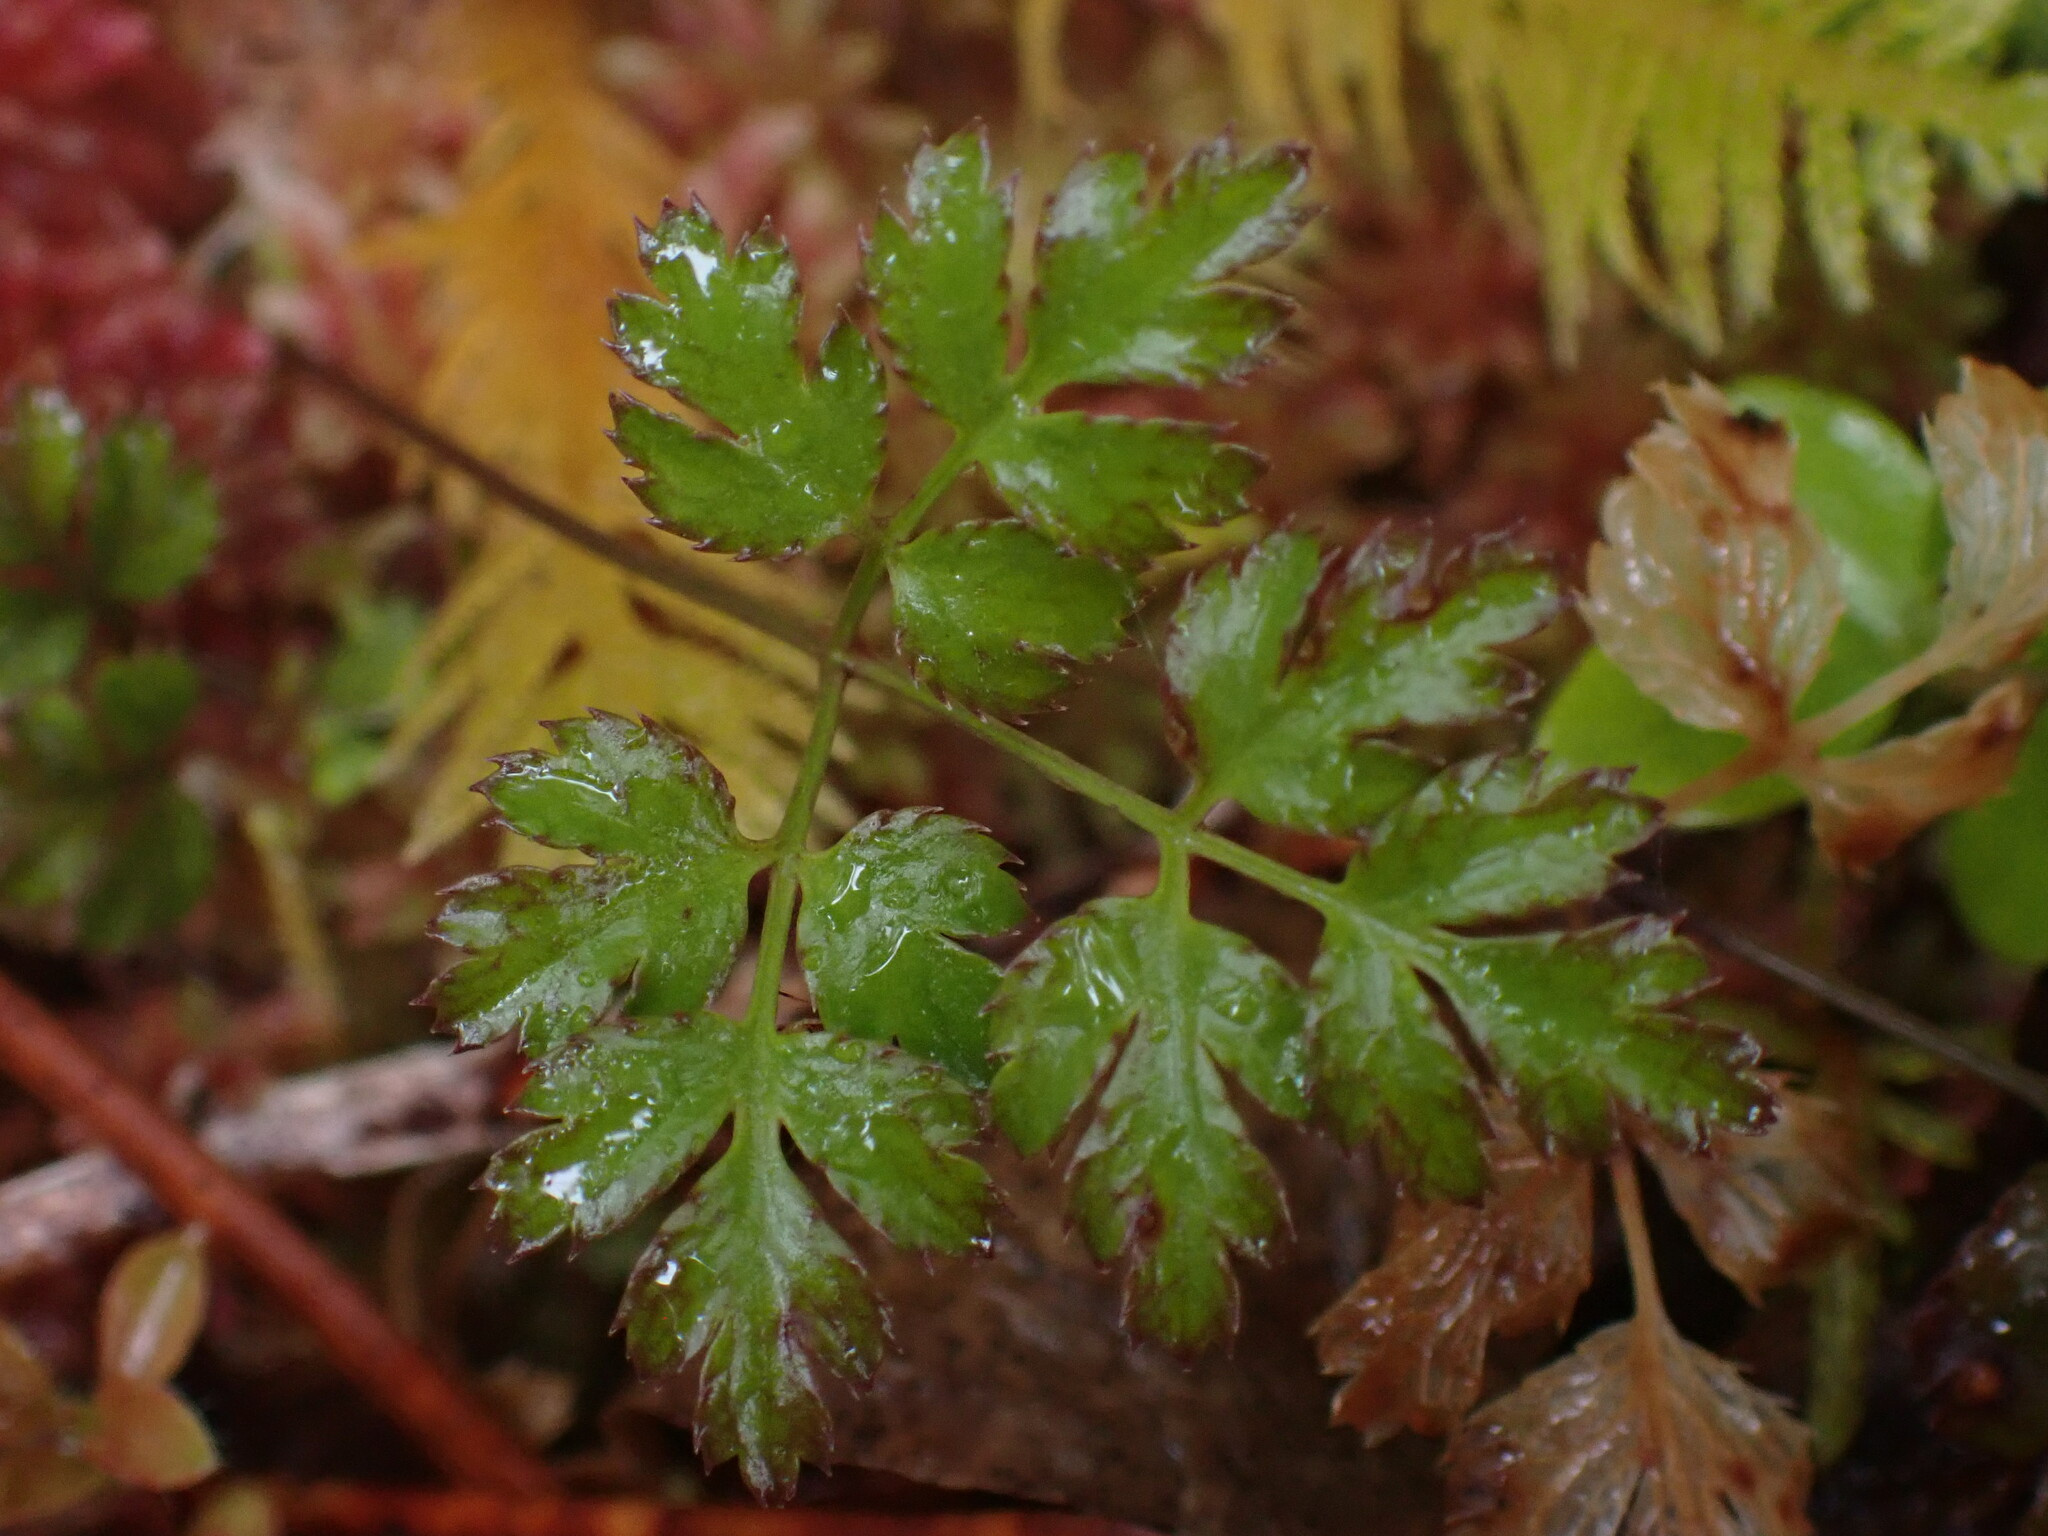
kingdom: Plantae
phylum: Tracheophyta
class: Magnoliopsida
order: Ranunculales
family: Ranunculaceae
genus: Coptis
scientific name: Coptis aspleniifolia
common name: Fern-leaved goldthread
